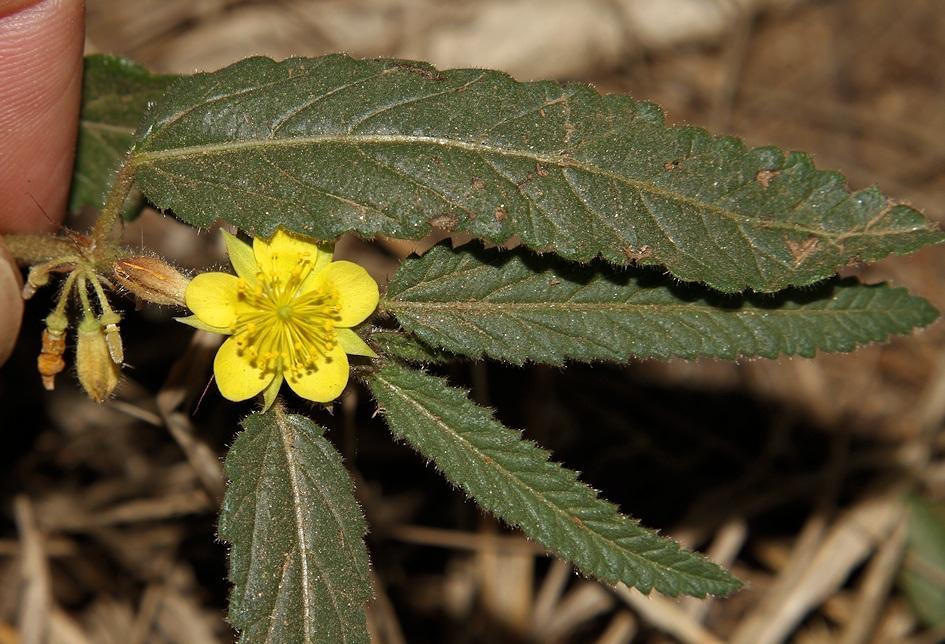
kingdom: Plantae
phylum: Tracheophyta
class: Magnoliopsida
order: Malvales
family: Malvaceae
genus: Corchorus
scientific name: Corchorus asplenifolius
